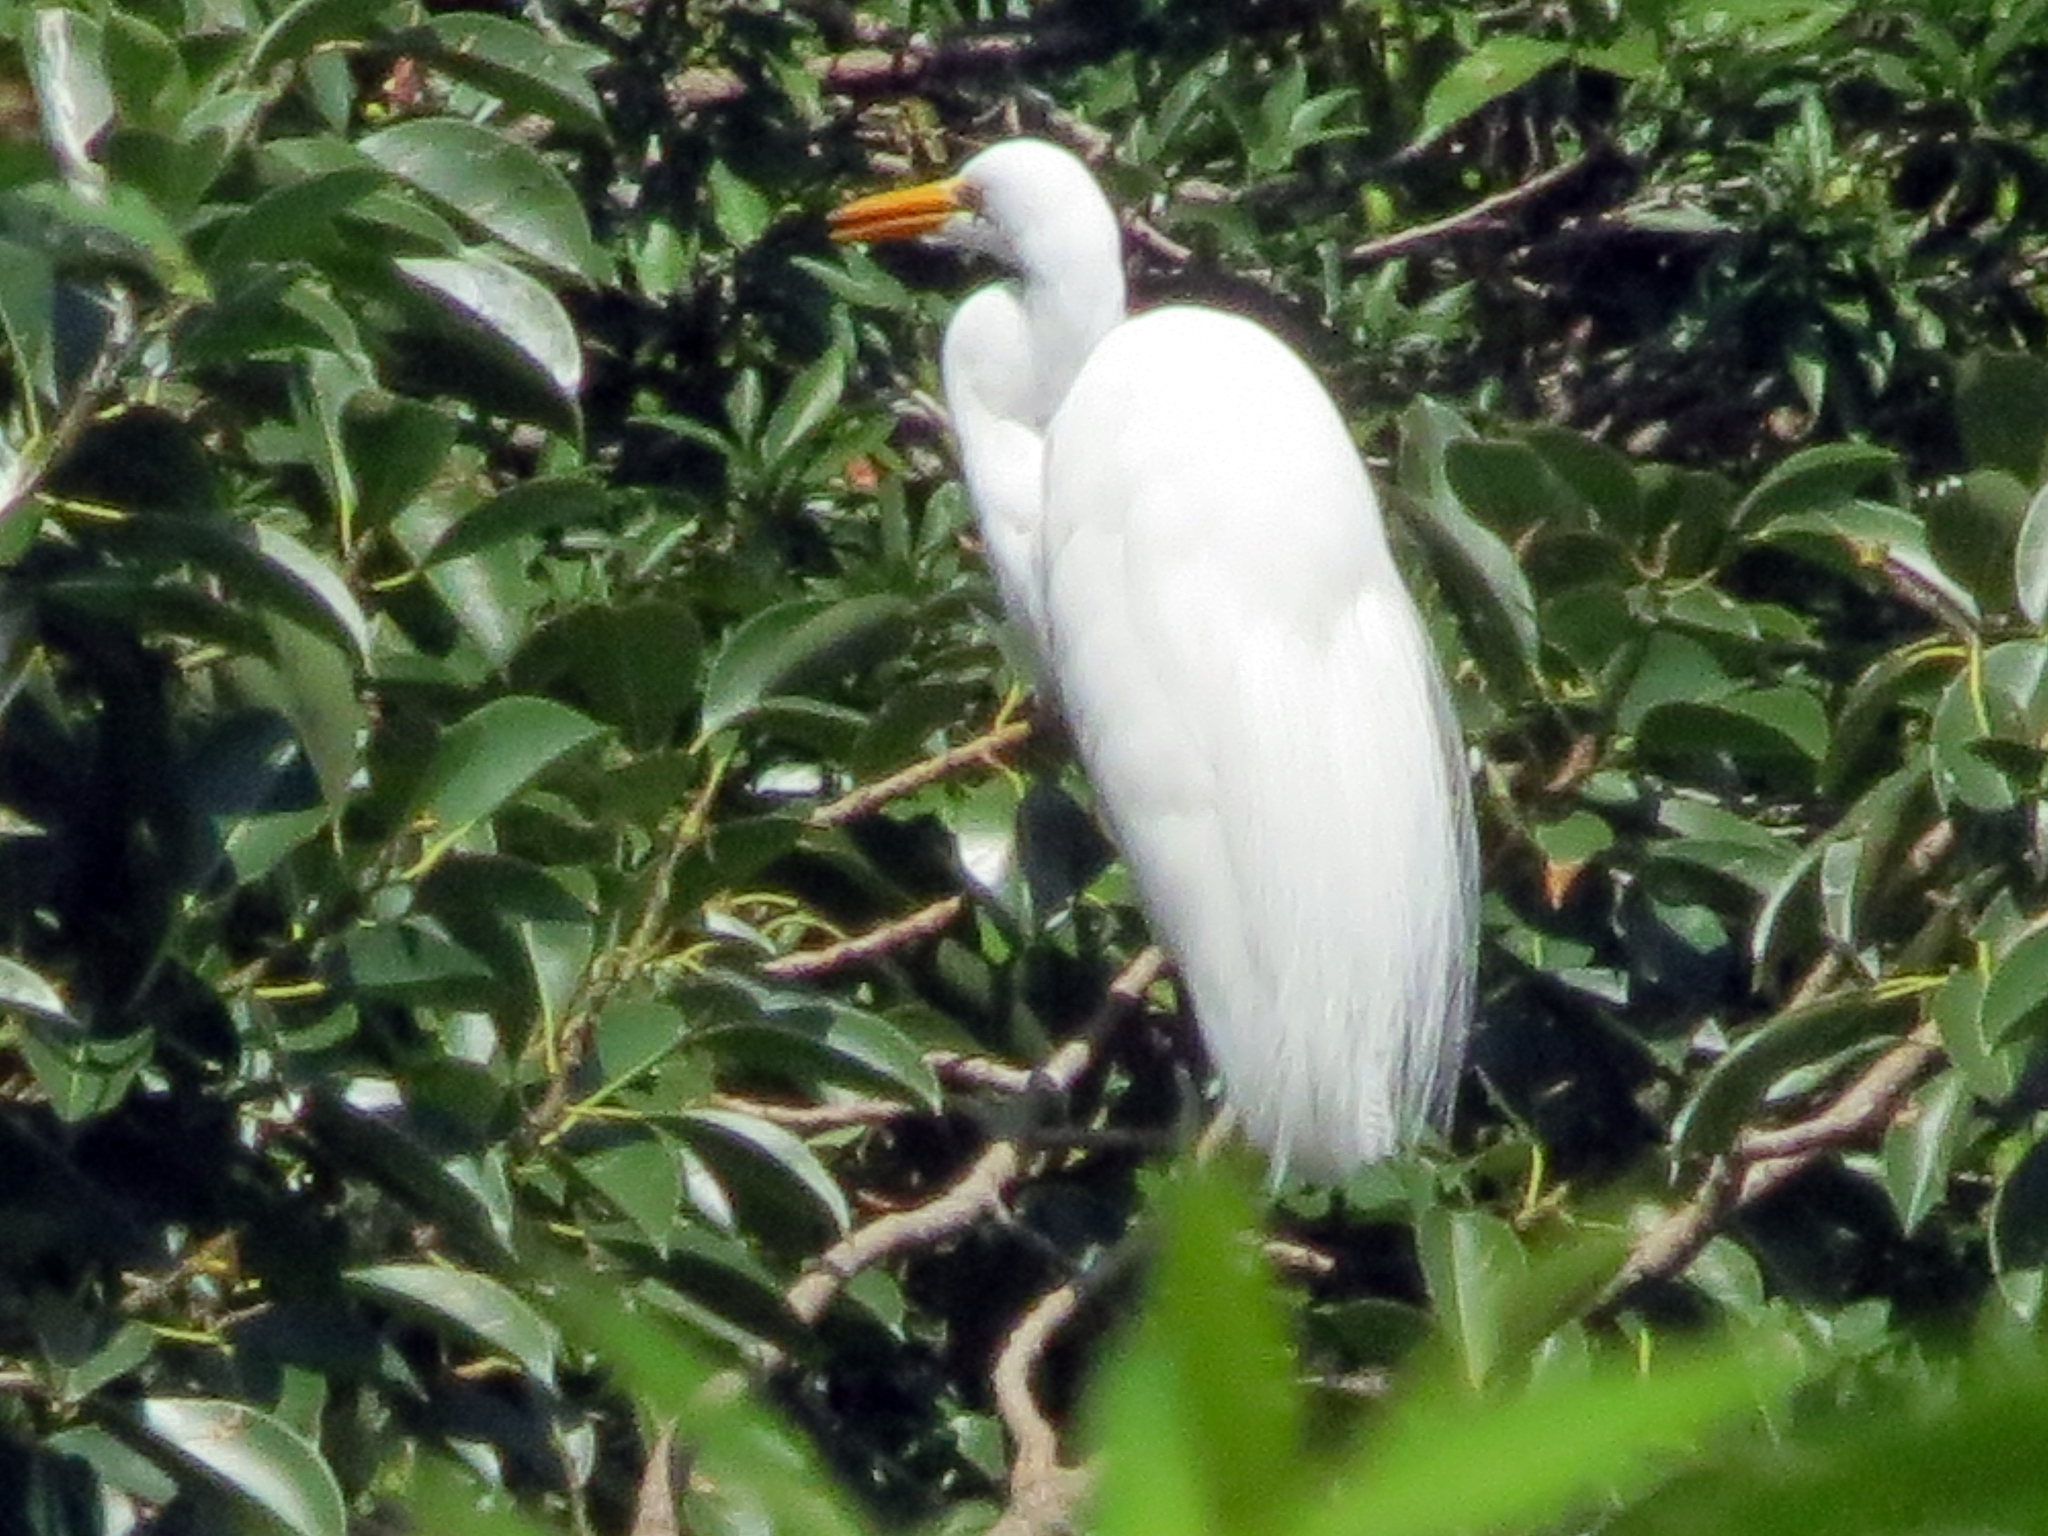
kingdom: Animalia
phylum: Chordata
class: Aves
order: Pelecaniformes
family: Ardeidae
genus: Ardea
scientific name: Ardea alba
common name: Great egret
